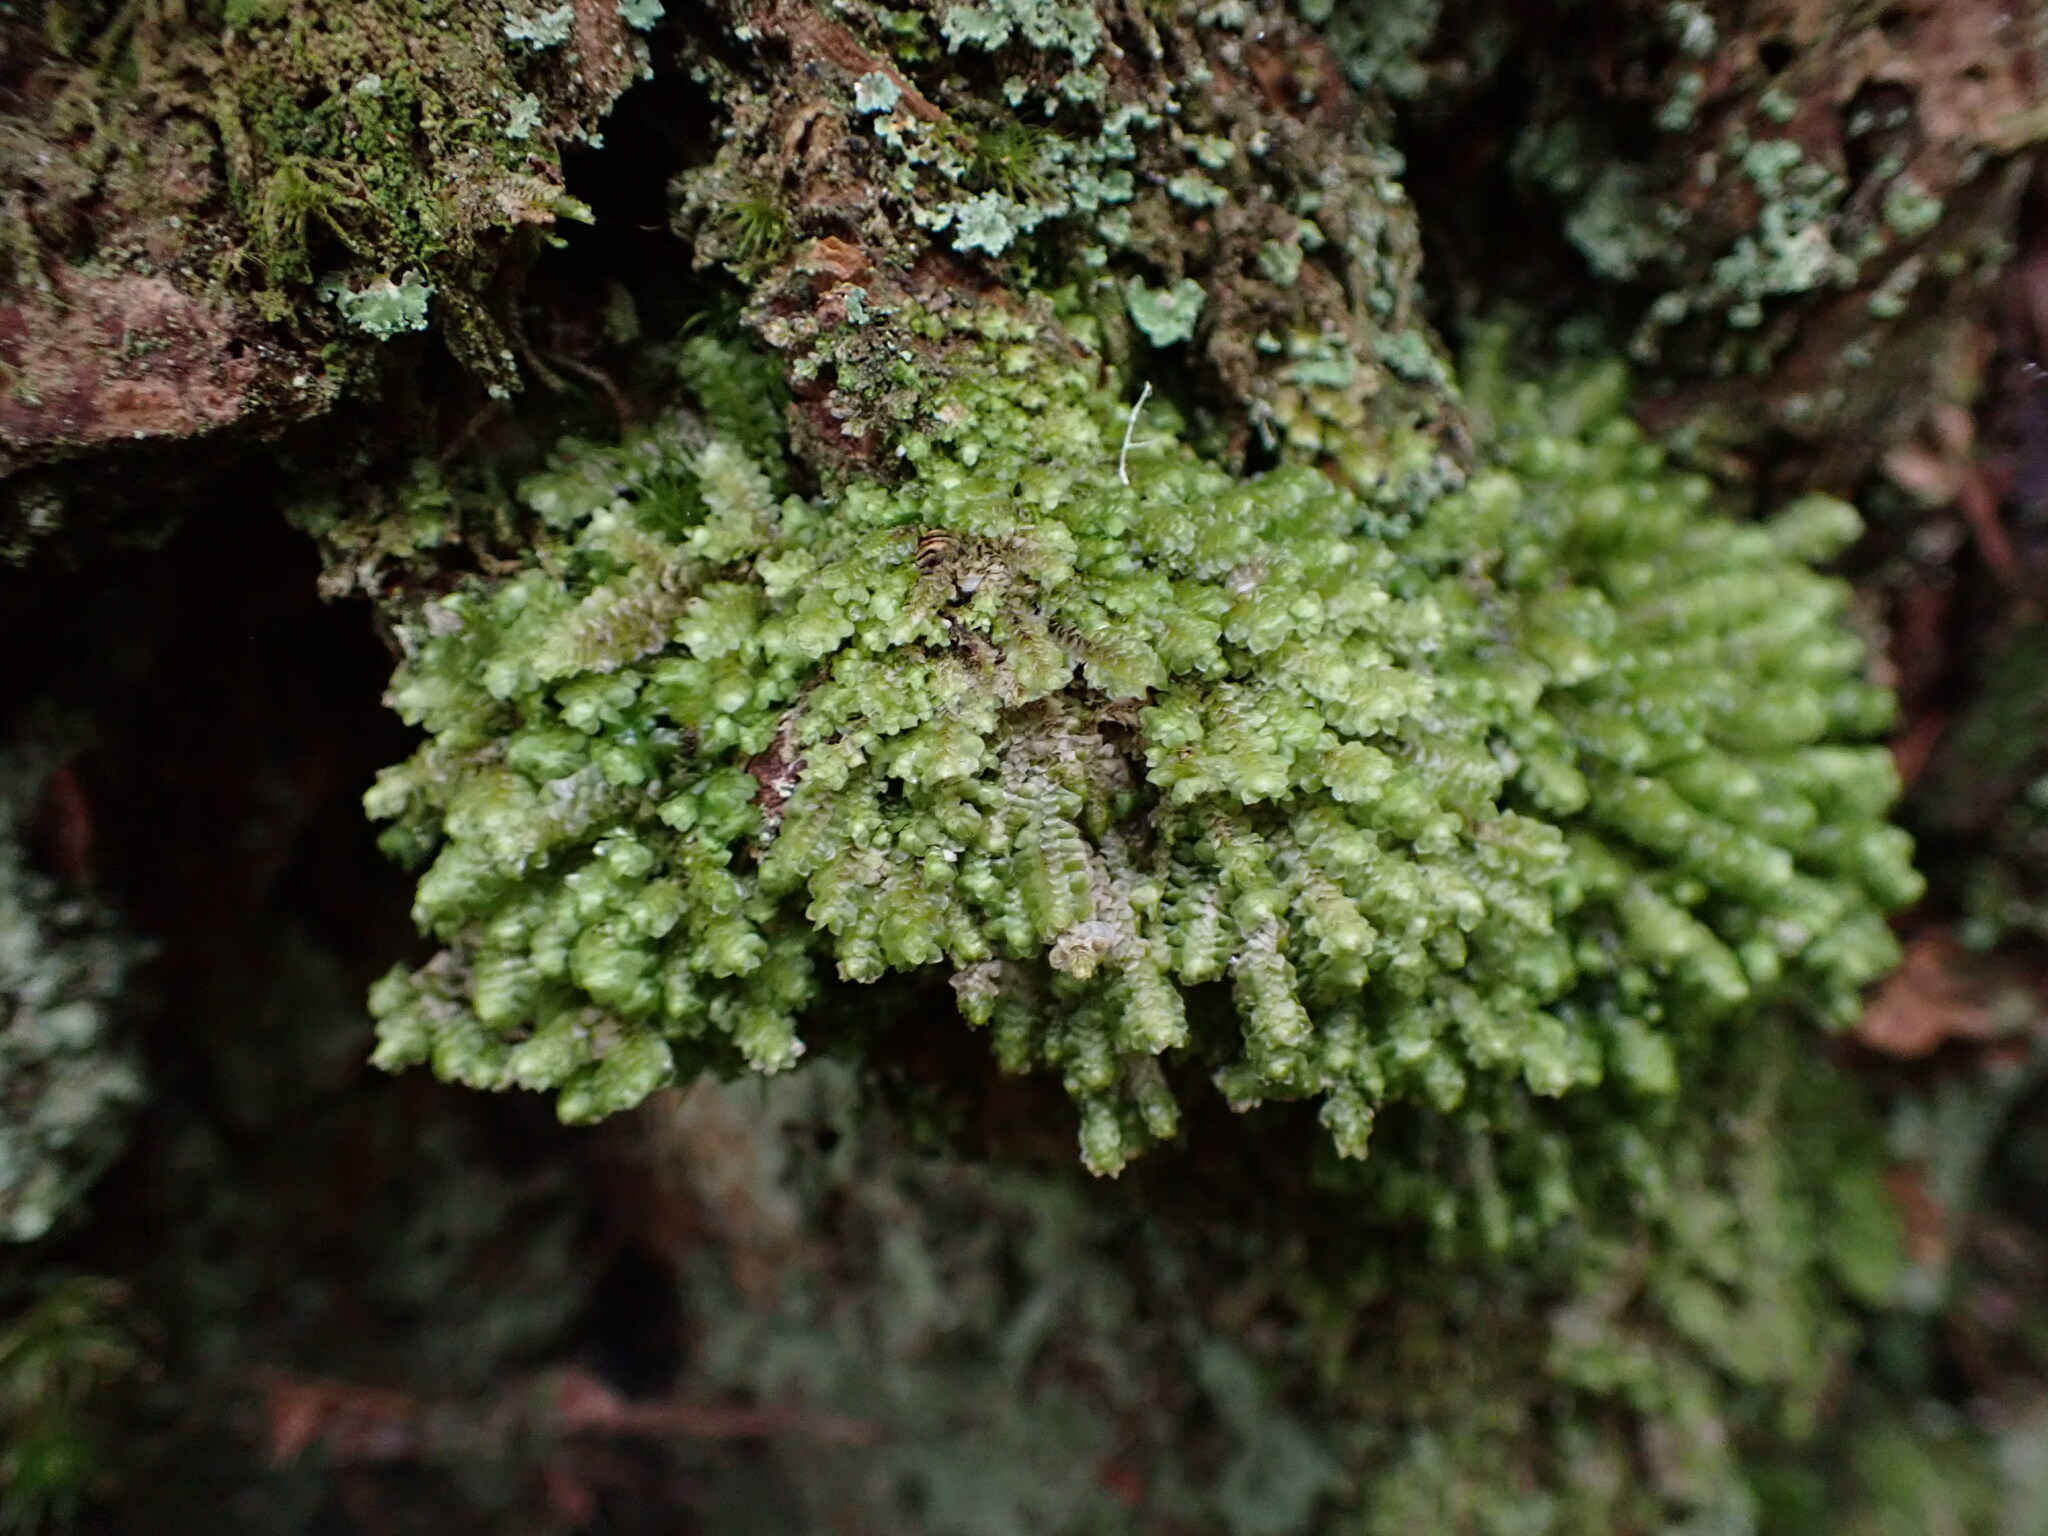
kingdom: Plantae
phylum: Marchantiophyta
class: Jungermanniopsida
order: Jungermanniales
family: Scapaniaceae
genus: Scapania
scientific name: Scapania bolanderi
